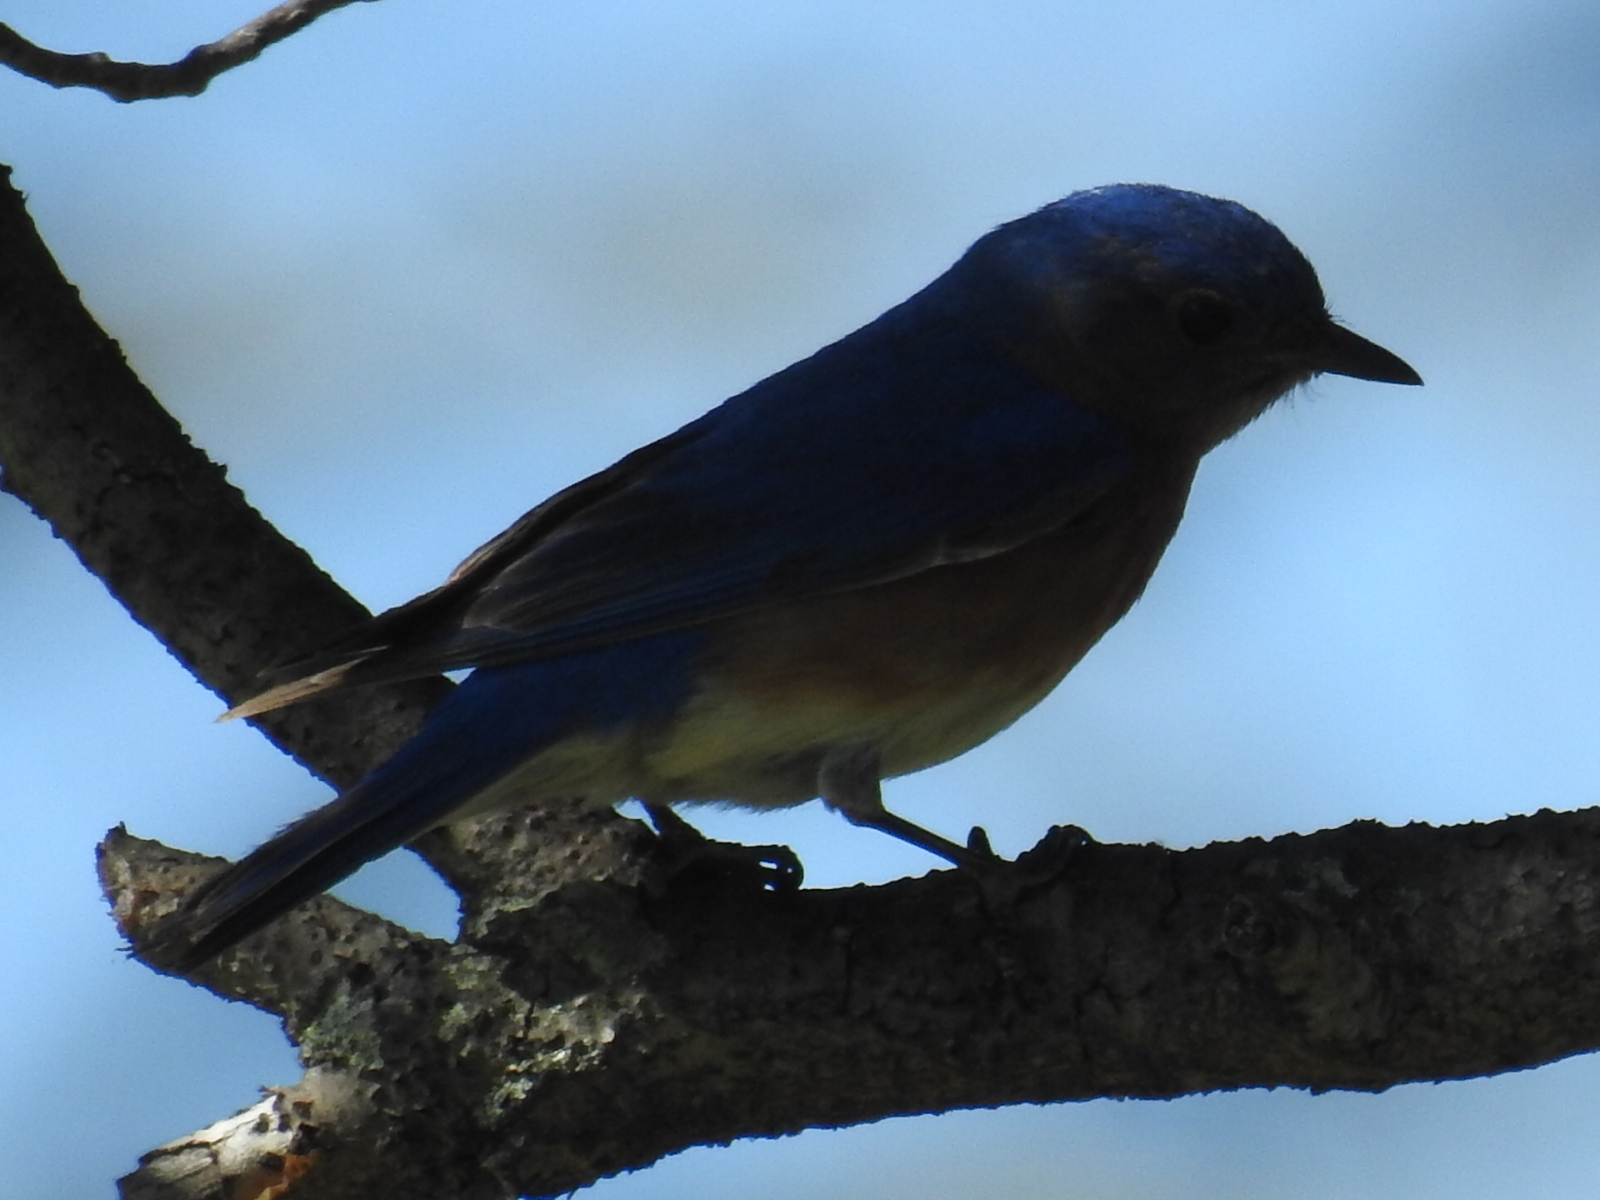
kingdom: Animalia
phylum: Chordata
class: Aves
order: Passeriformes
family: Turdidae
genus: Sialia
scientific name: Sialia sialis
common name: Eastern bluebird
